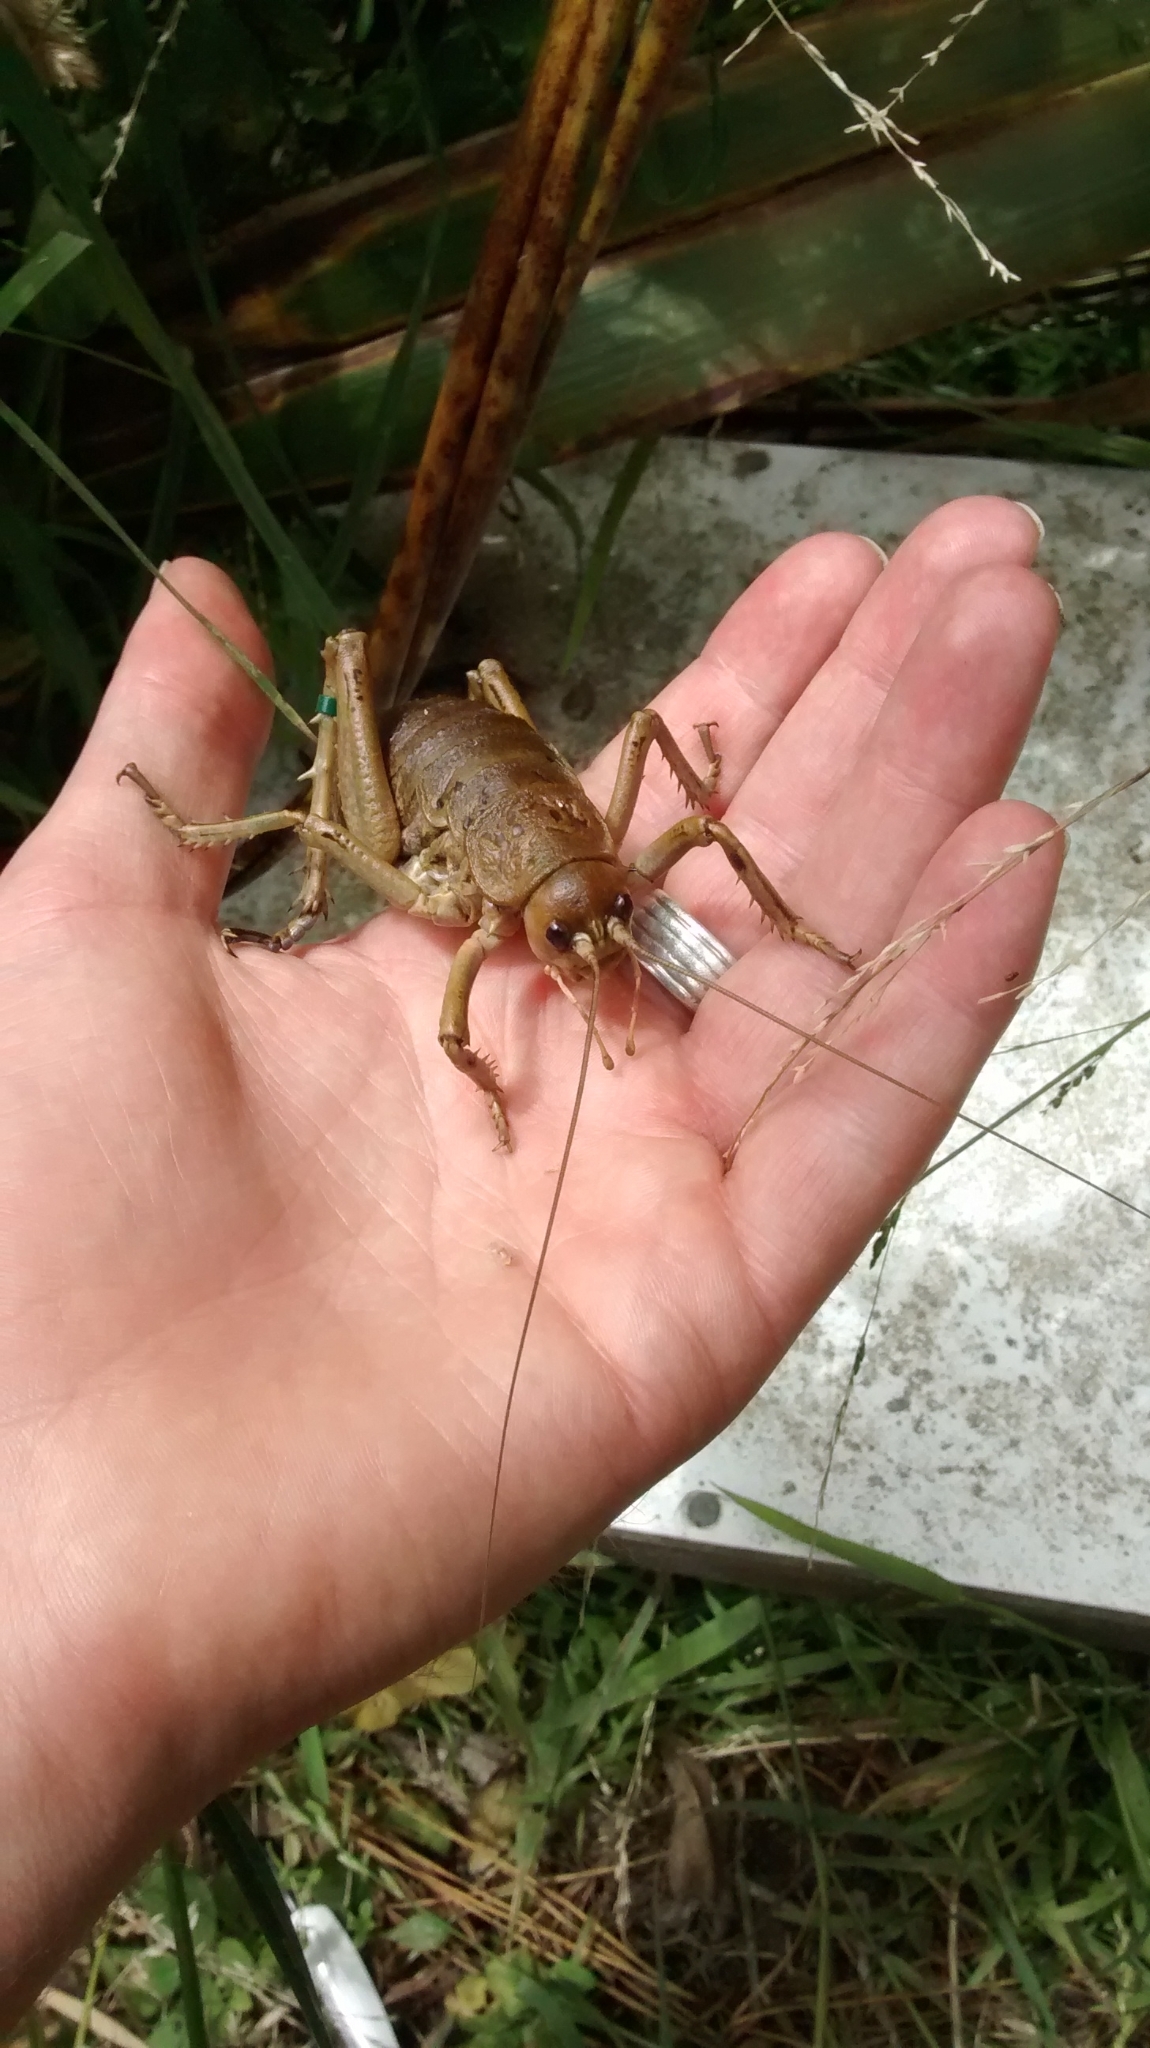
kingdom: Animalia
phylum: Arthropoda
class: Insecta
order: Orthoptera
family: Anostostomatidae
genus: Deinacrida
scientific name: Deinacrida rugosa
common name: Stephens island weta
